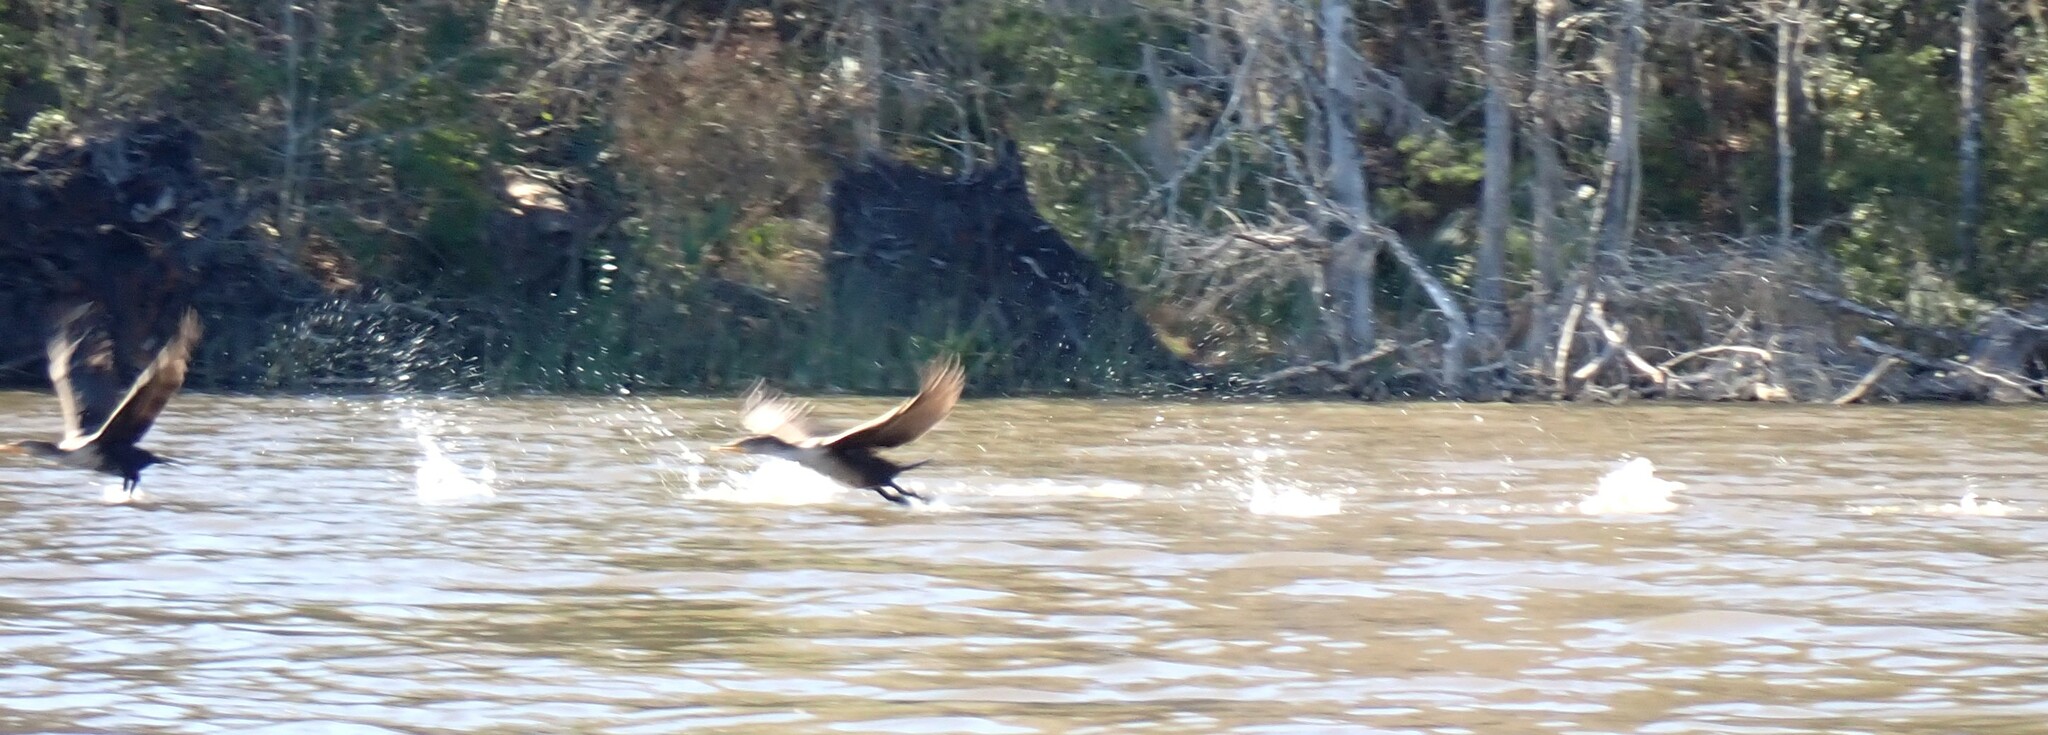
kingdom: Animalia
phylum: Chordata
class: Aves
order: Suliformes
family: Phalacrocoracidae
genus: Phalacrocorax
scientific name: Phalacrocorax auritus
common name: Double-crested cormorant
